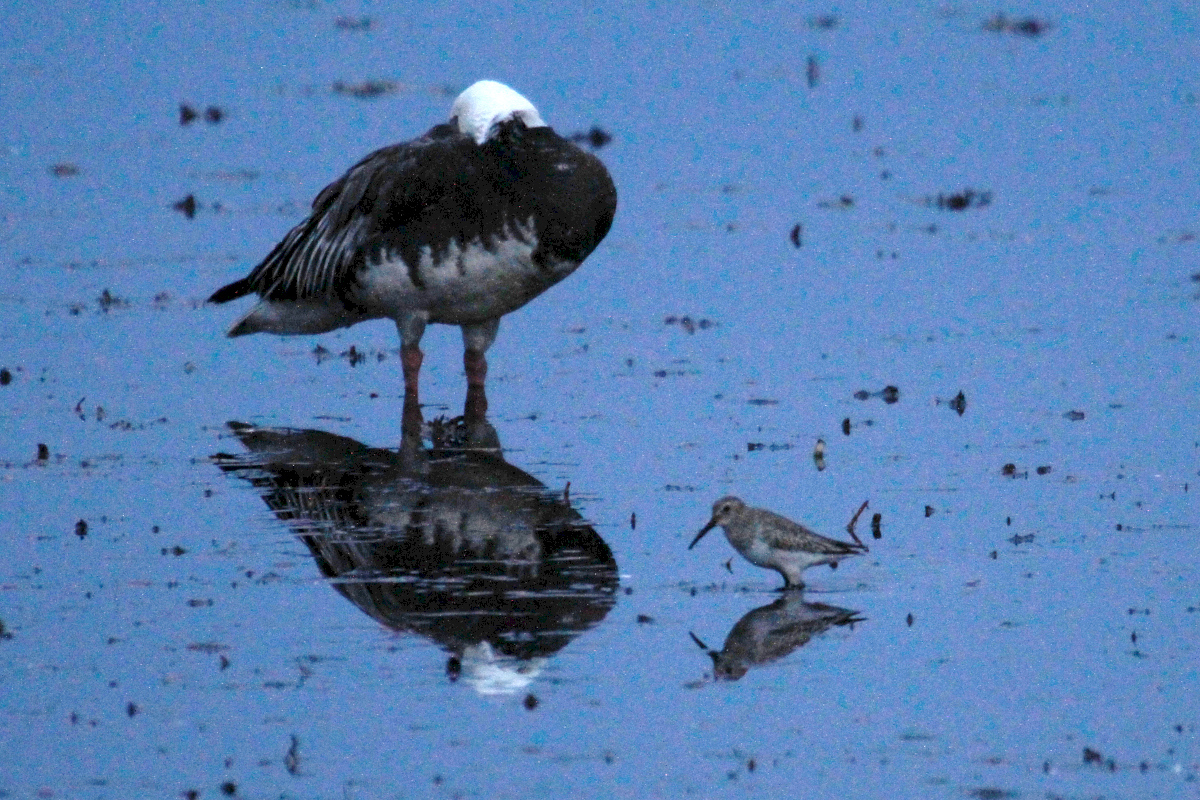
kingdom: Animalia
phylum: Chordata
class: Aves
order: Charadriiformes
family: Scolopacidae
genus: Calidris
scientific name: Calidris alpina
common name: Dunlin
